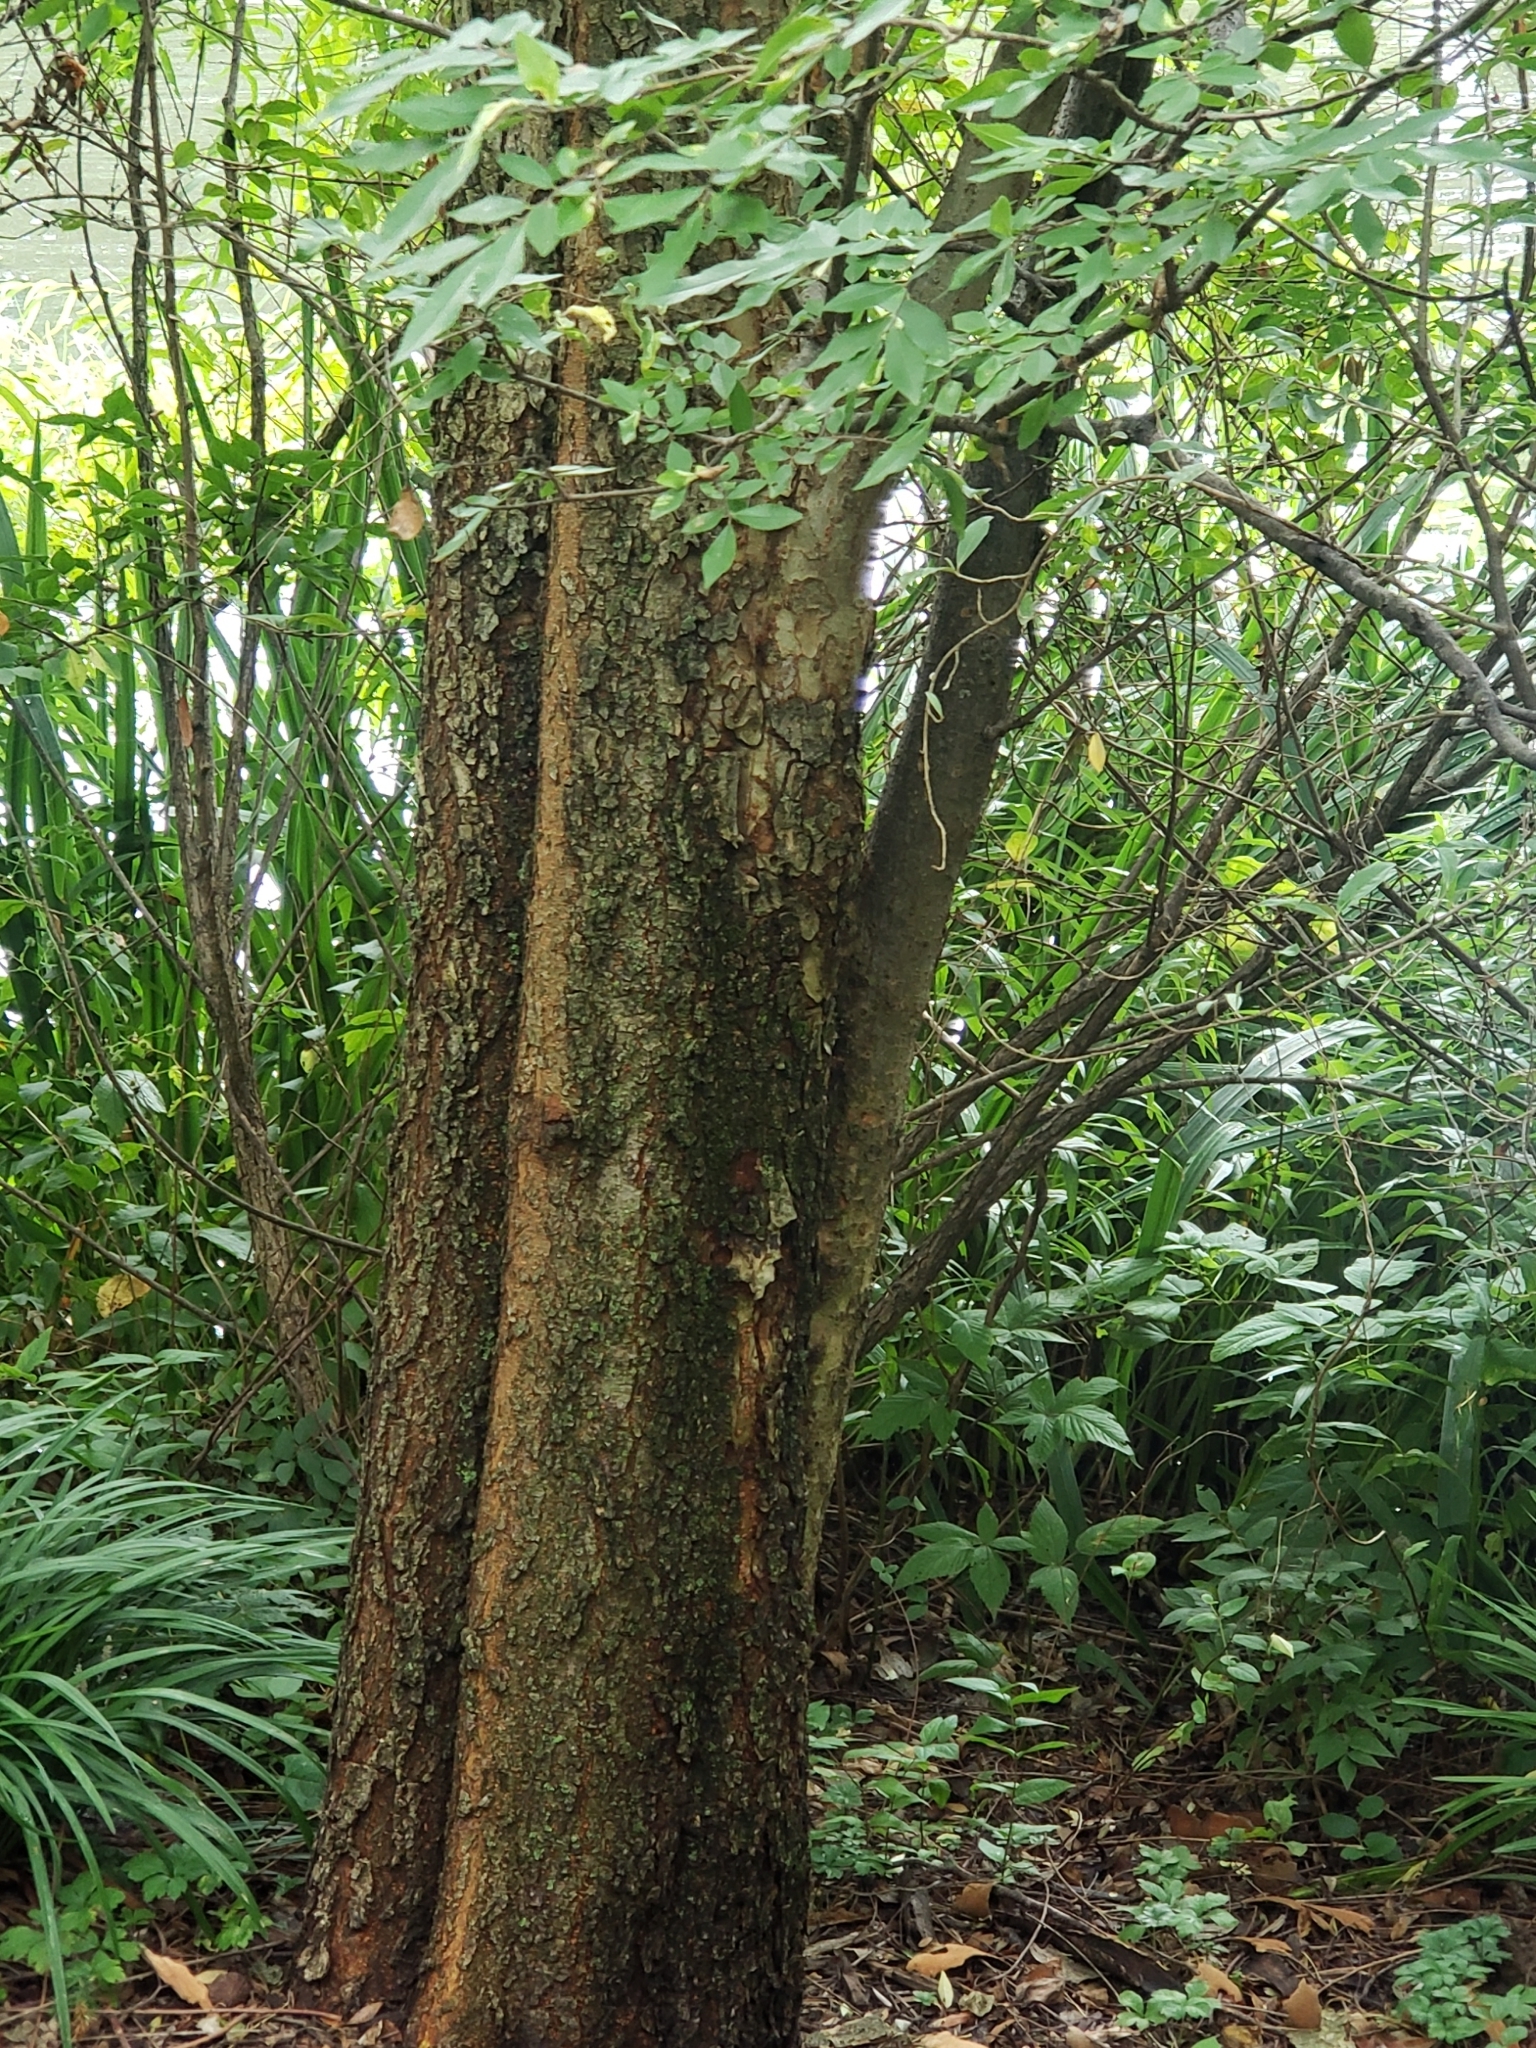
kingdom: Plantae
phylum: Tracheophyta
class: Magnoliopsida
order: Rosales
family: Ulmaceae
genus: Ulmus
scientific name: Ulmus parvifolia
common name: Chinese elm
